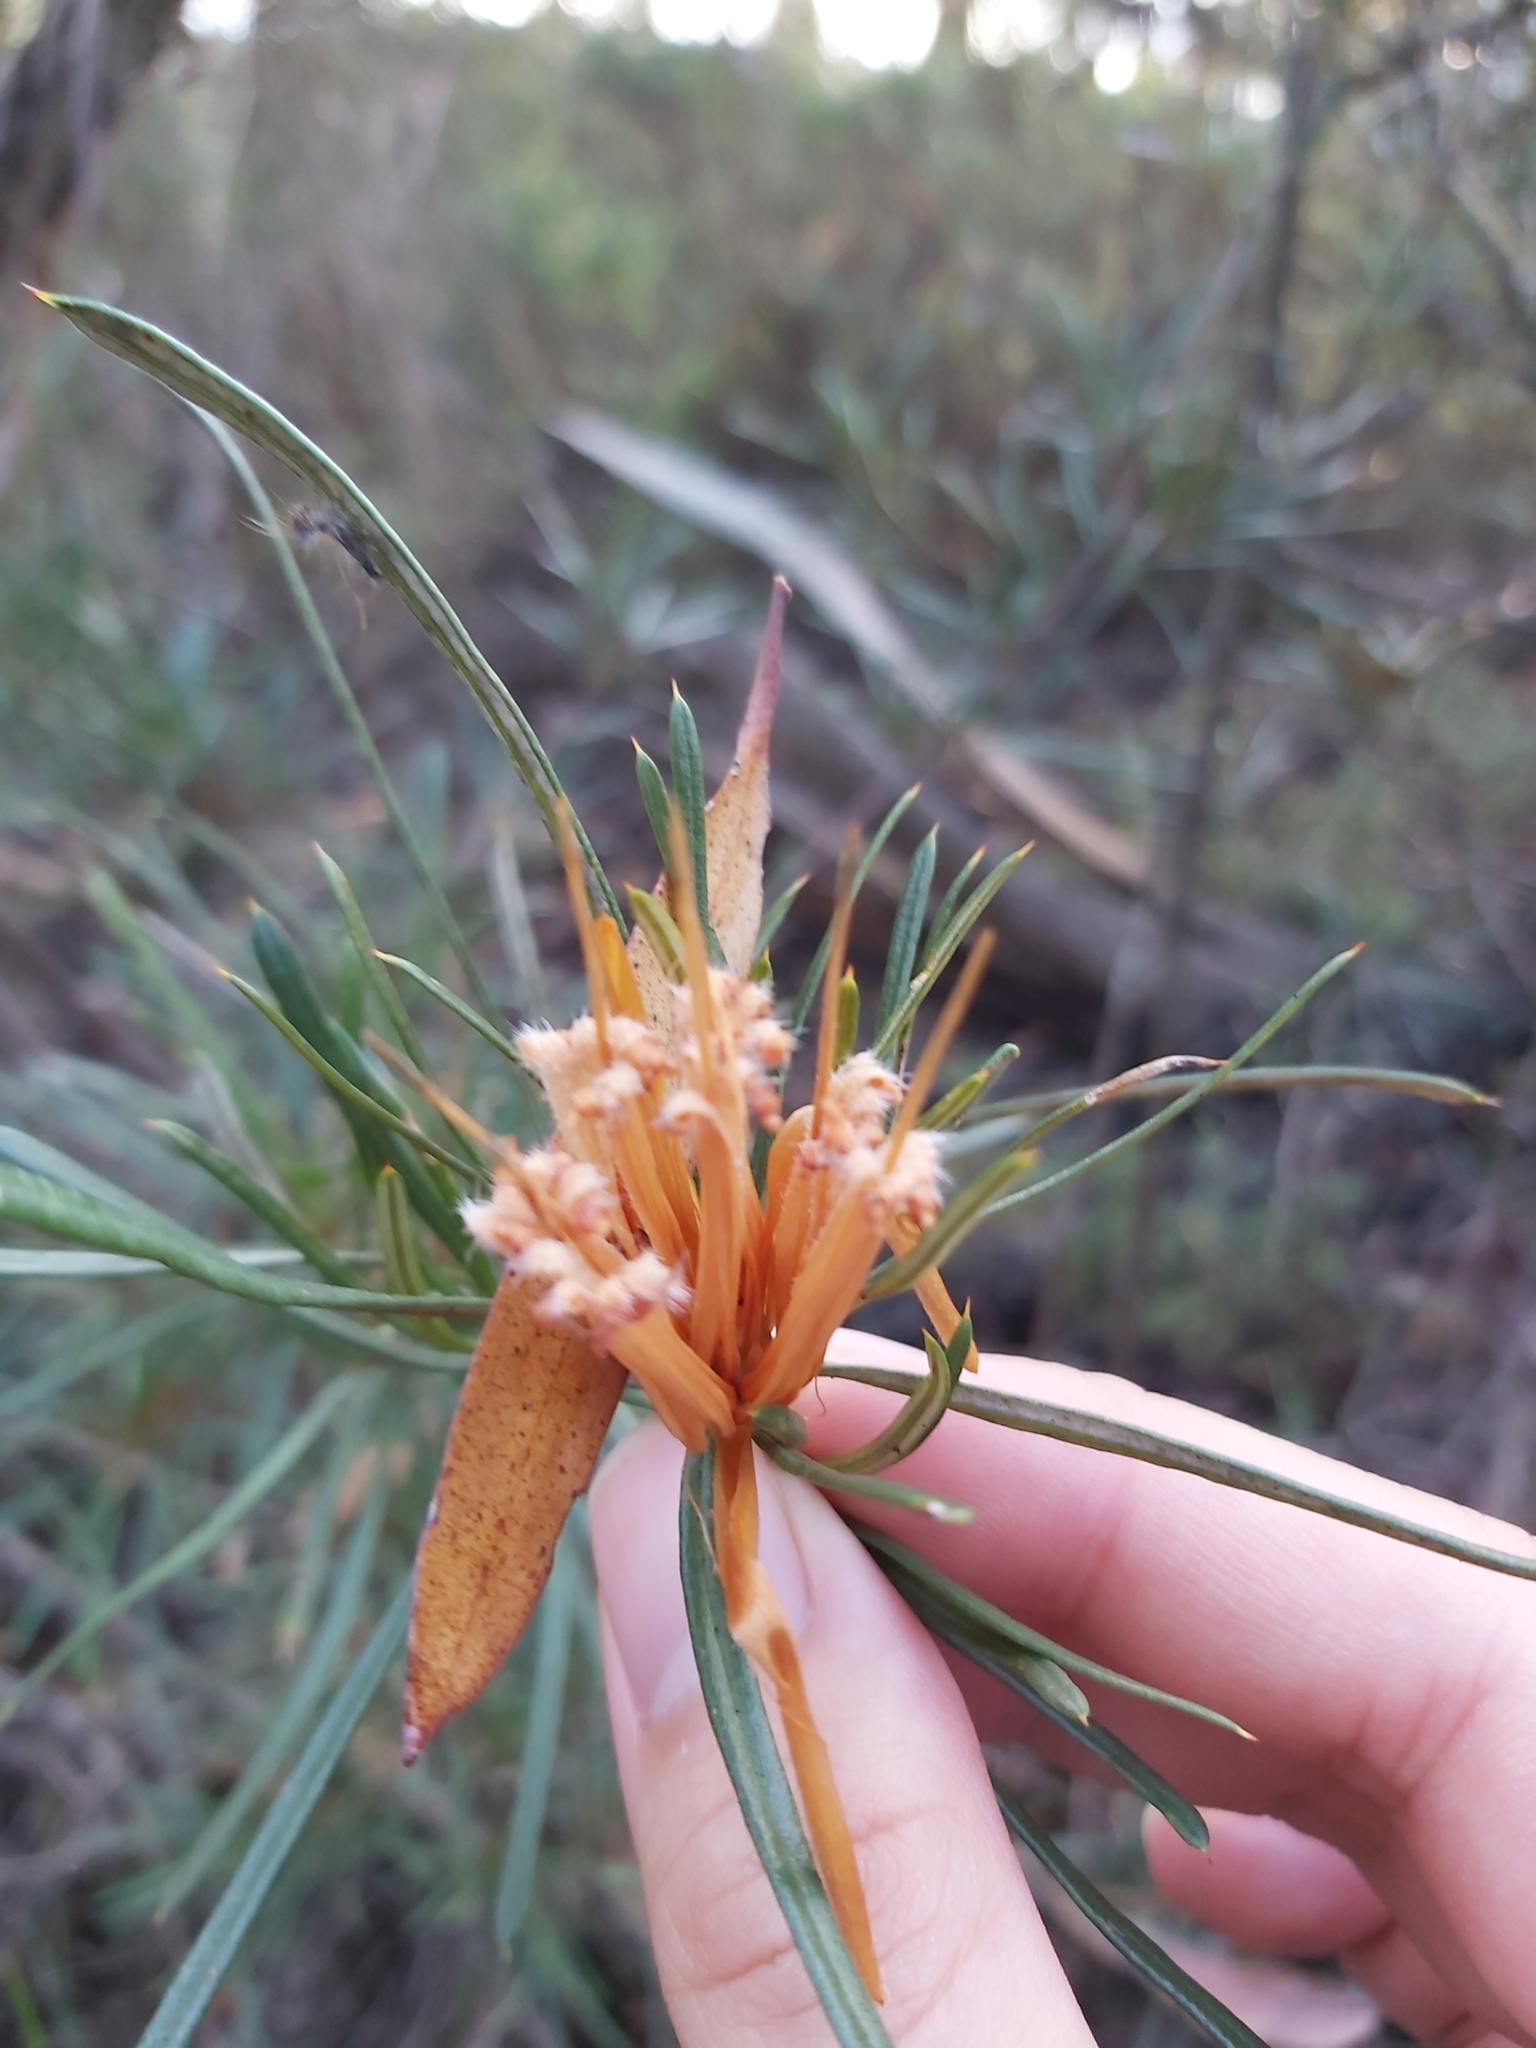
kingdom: Plantae
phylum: Tracheophyta
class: Magnoliopsida
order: Proteales
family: Proteaceae
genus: Lambertia
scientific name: Lambertia formosa
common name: Mountain-devil
